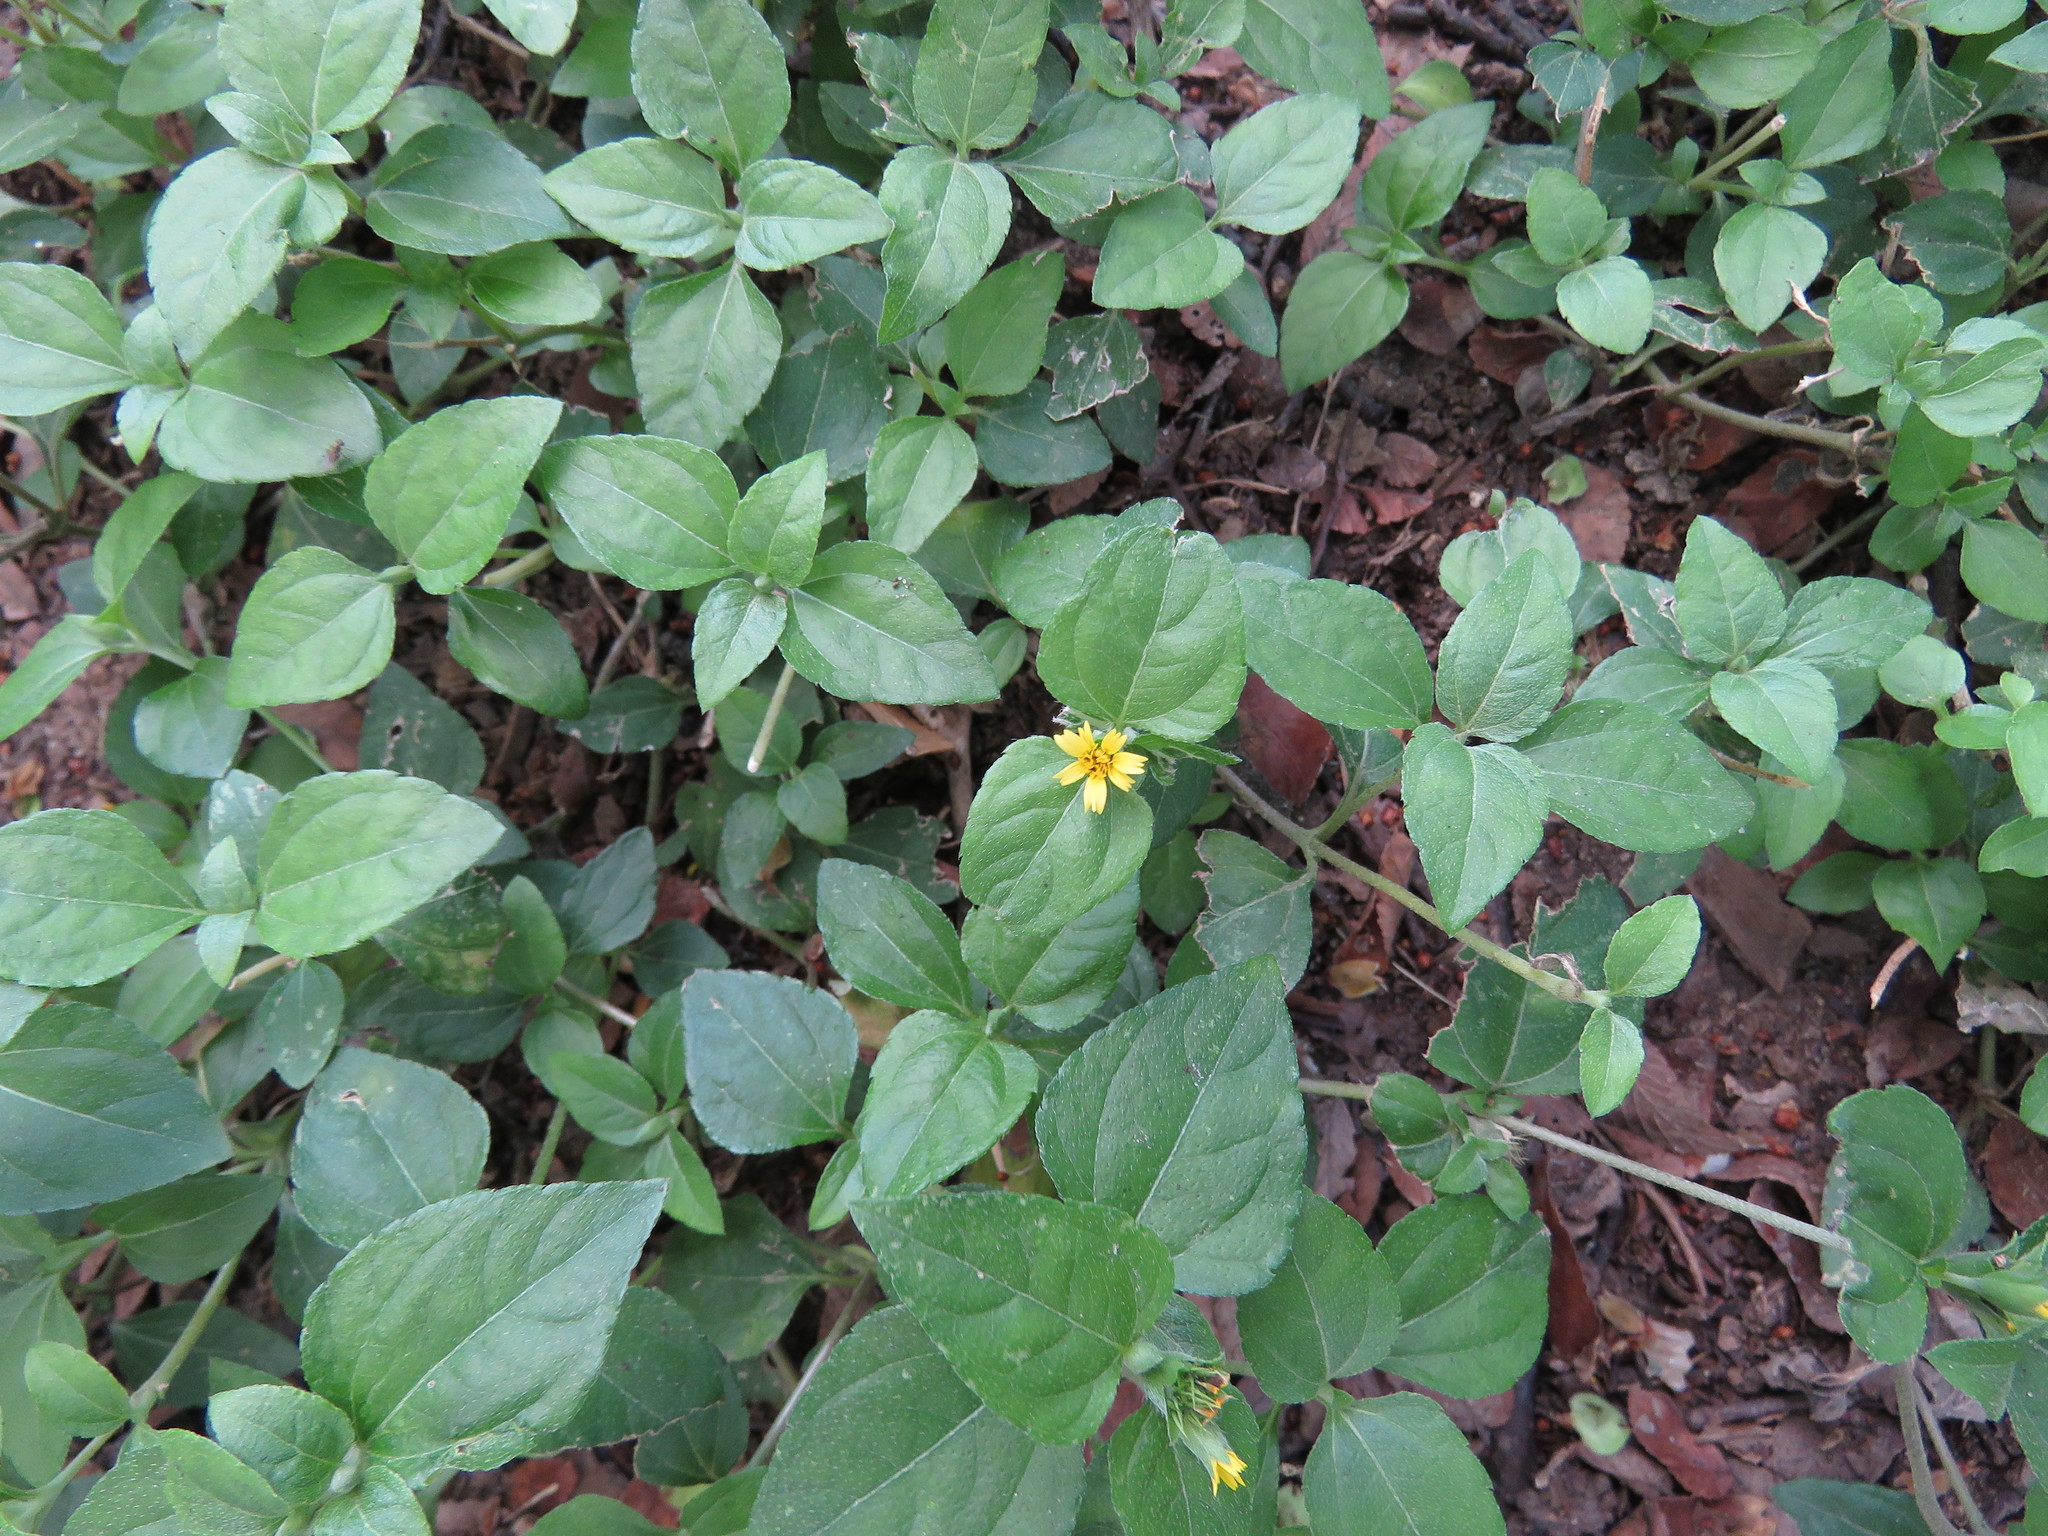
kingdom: Plantae
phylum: Tracheophyta
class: Magnoliopsida
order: Asterales
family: Asteraceae
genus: Calyptocarpus
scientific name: Calyptocarpus vialis
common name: Straggler daisy
